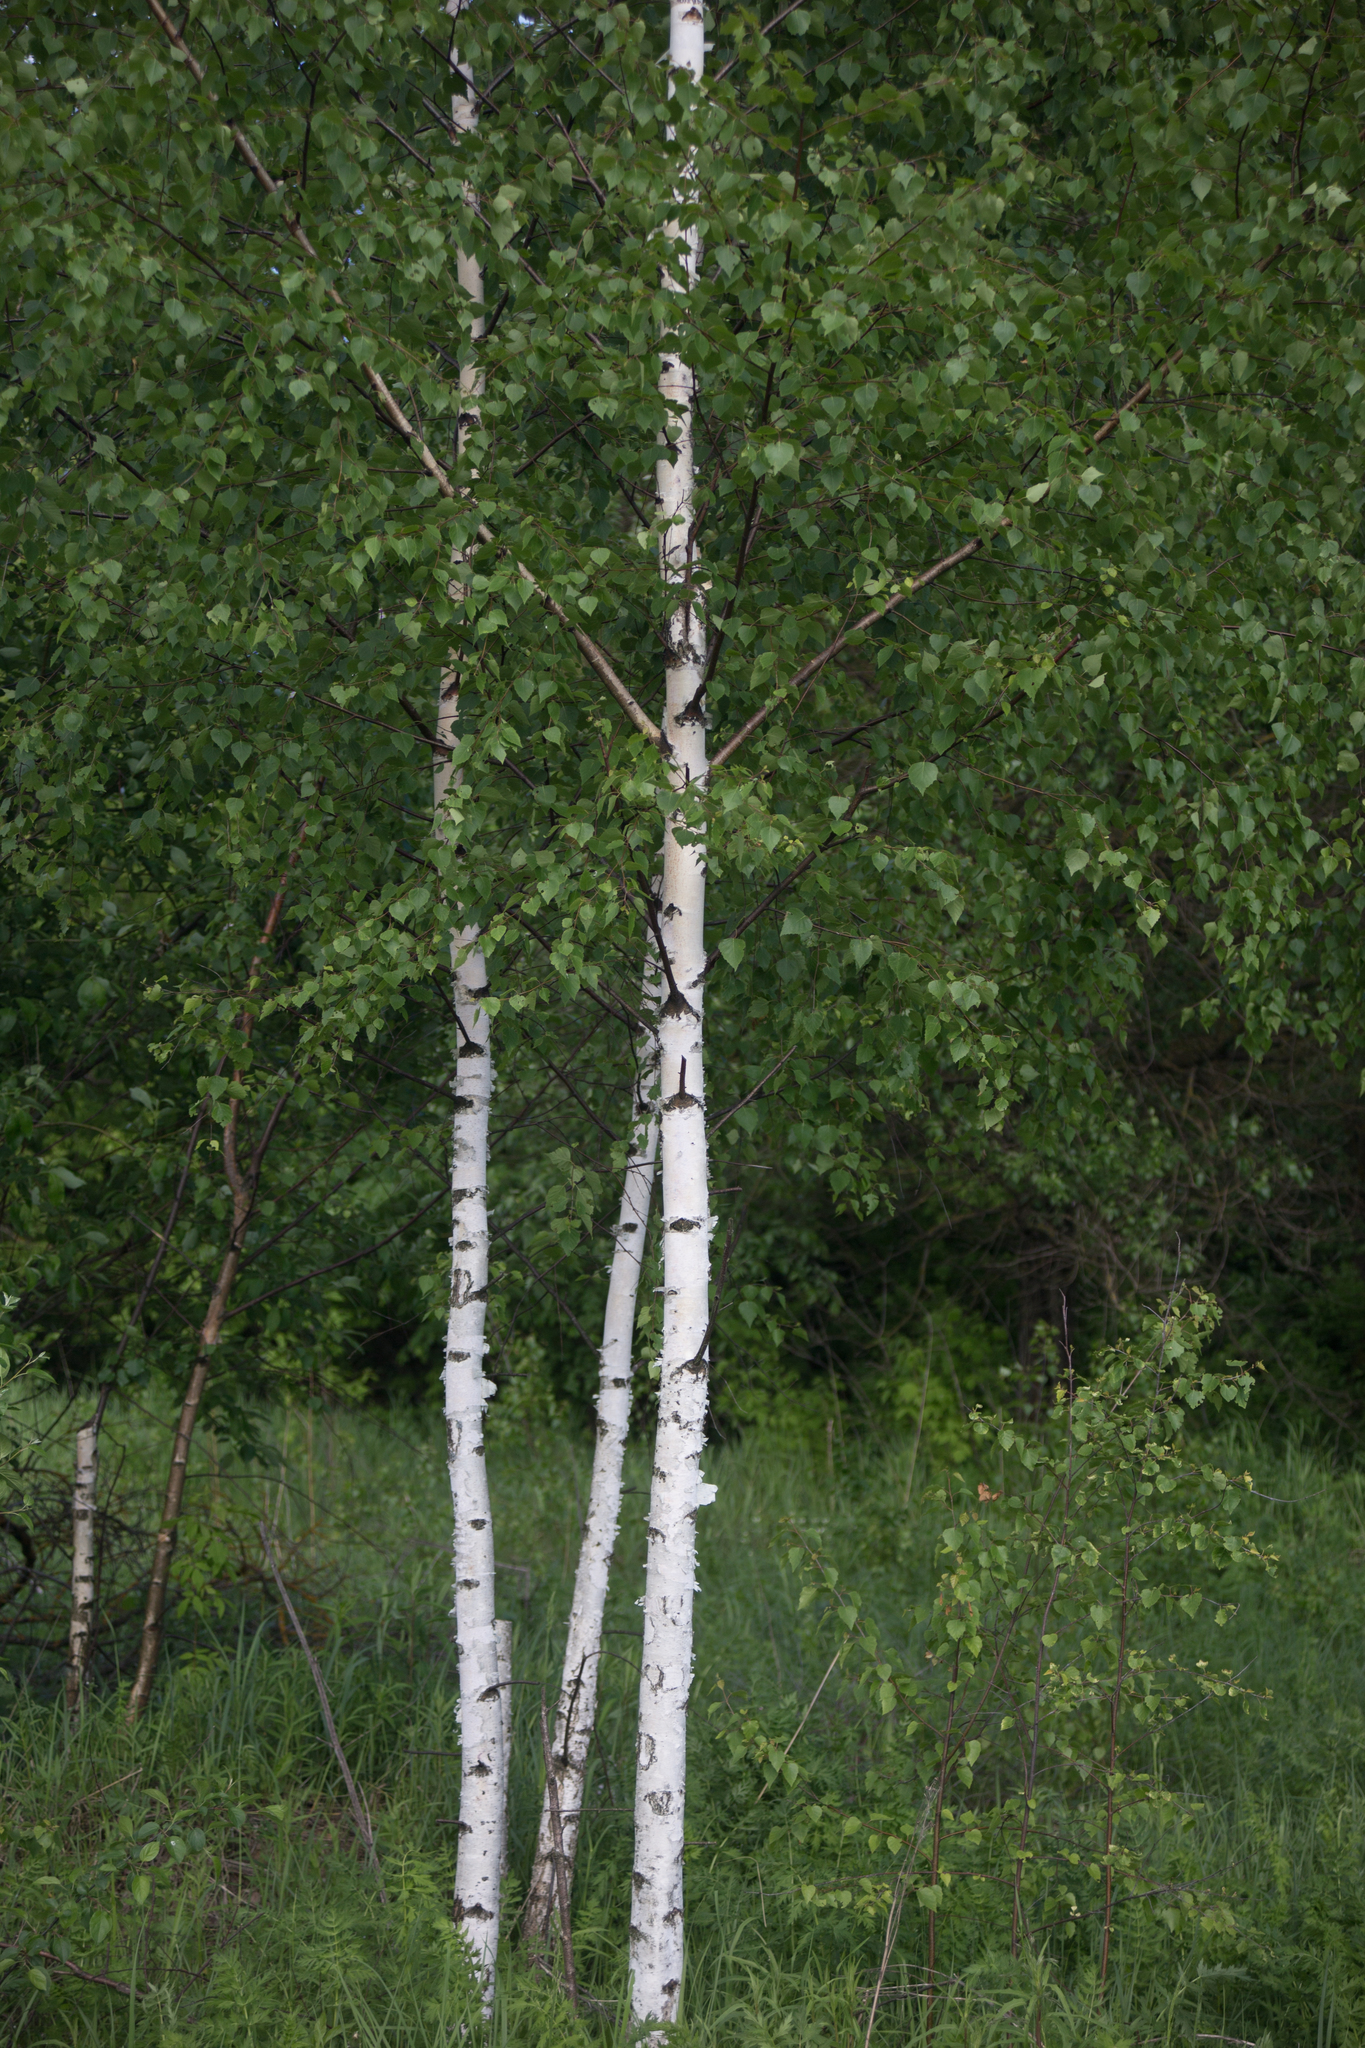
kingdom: Plantae
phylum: Tracheophyta
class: Magnoliopsida
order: Fagales
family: Betulaceae
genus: Betula
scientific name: Betula pendula
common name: Silver birch
